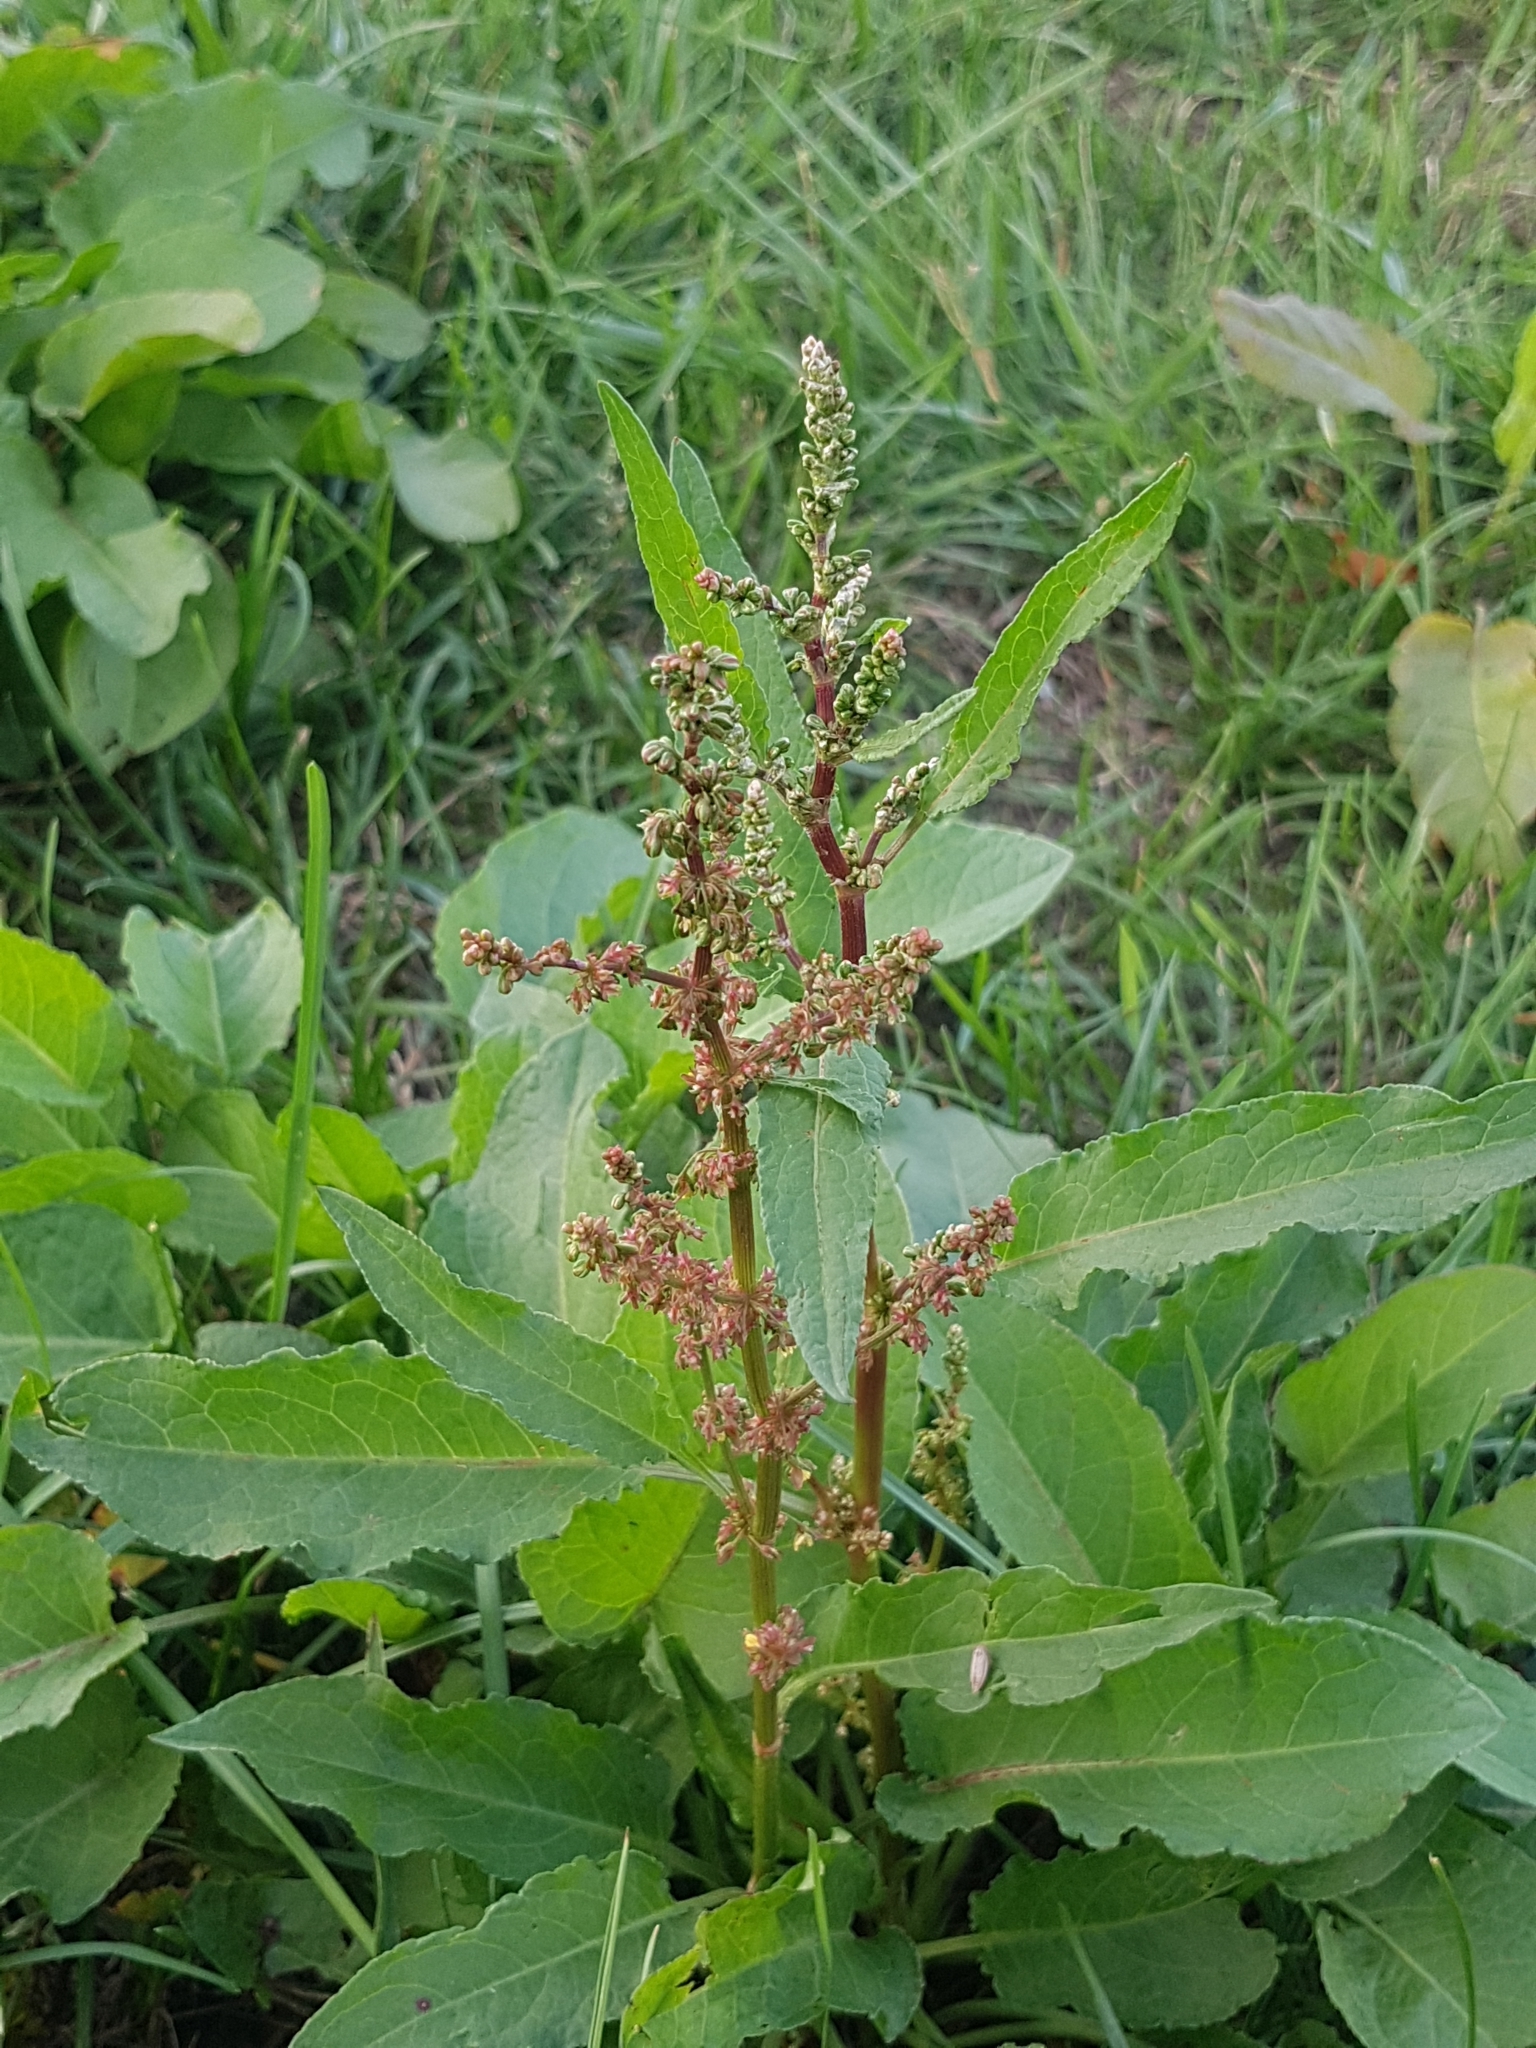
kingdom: Plantae
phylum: Tracheophyta
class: Magnoliopsida
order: Caryophyllales
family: Polygonaceae
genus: Rumex
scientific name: Rumex obtusifolius
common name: Bitter dock
